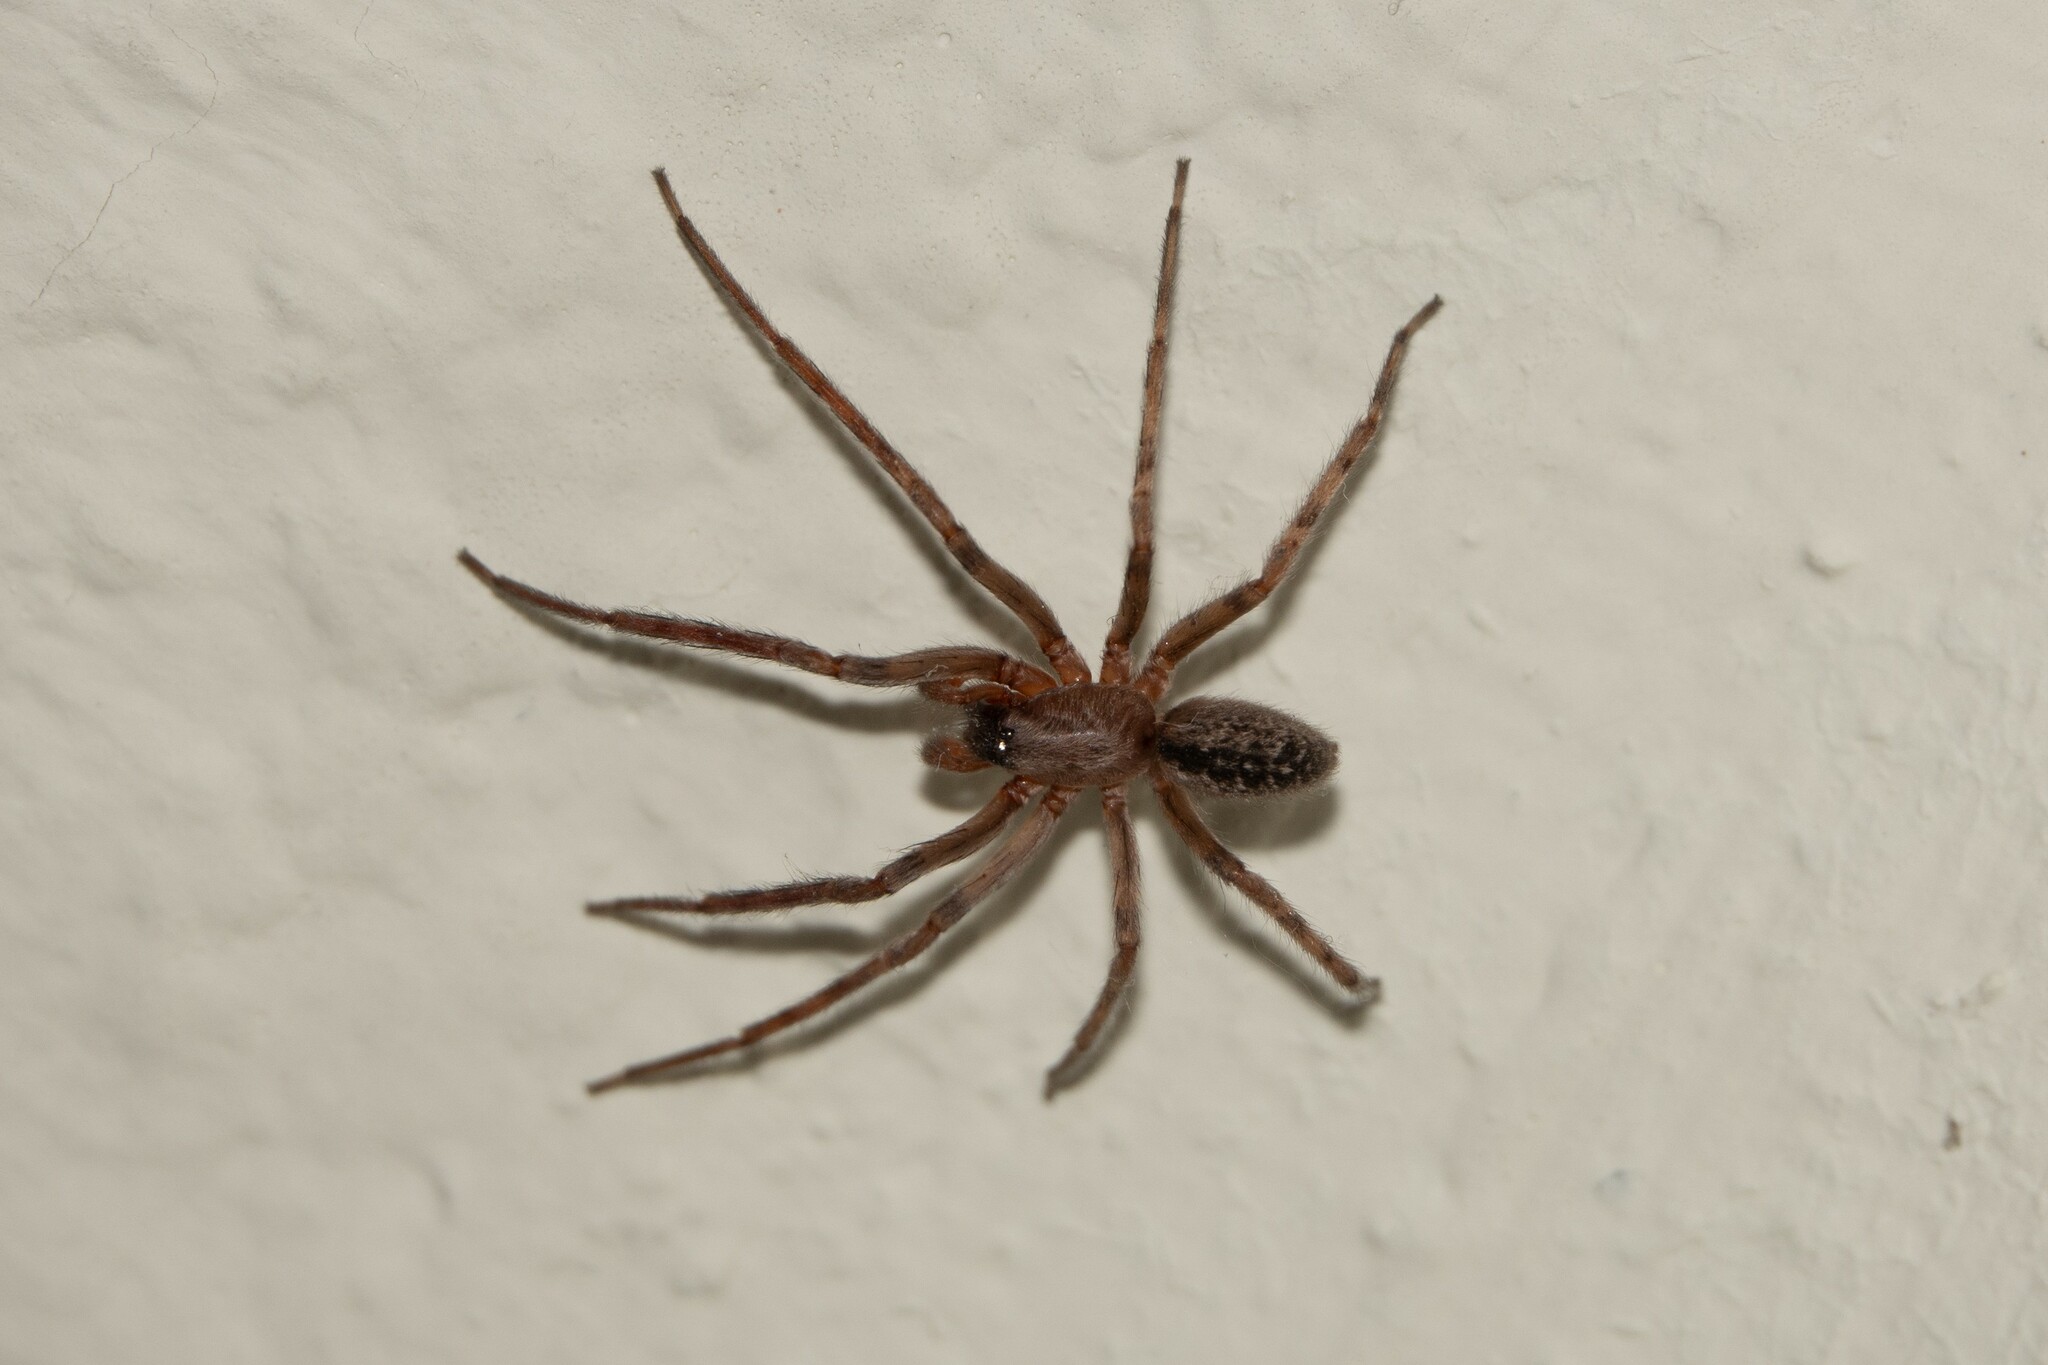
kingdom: Animalia
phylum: Arthropoda
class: Arachnida
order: Araneae
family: Segestriidae
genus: Segestria
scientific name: Segestria bavarica
